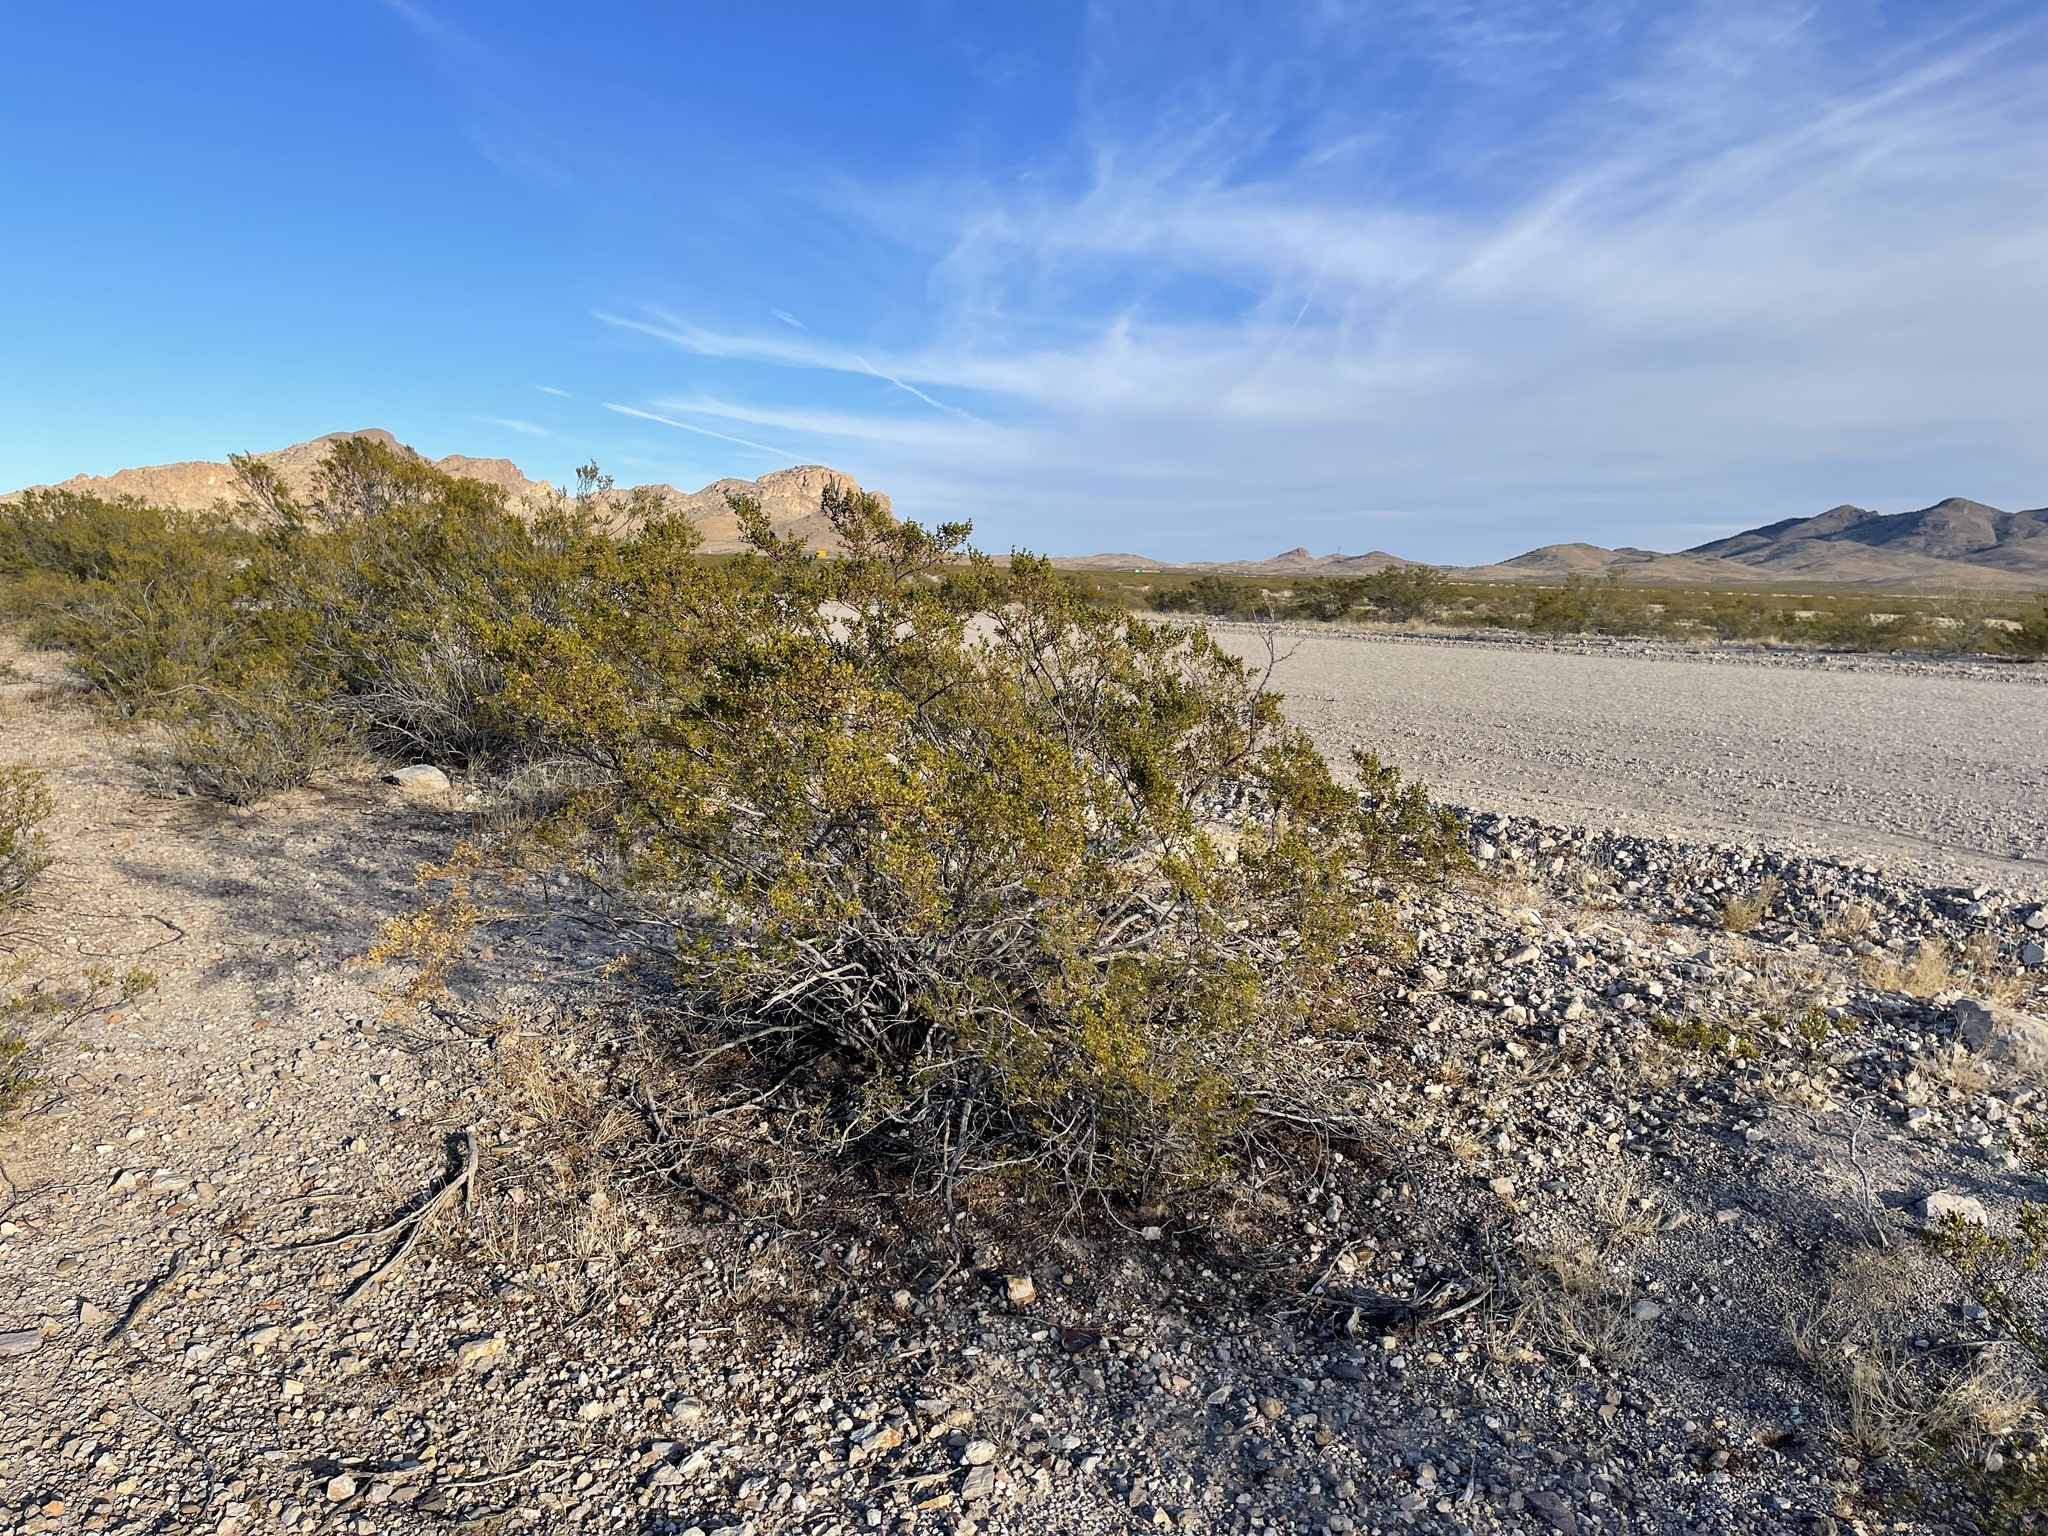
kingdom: Plantae
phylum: Tracheophyta
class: Magnoliopsida
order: Zygophyllales
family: Zygophyllaceae
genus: Larrea
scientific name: Larrea tridentata
